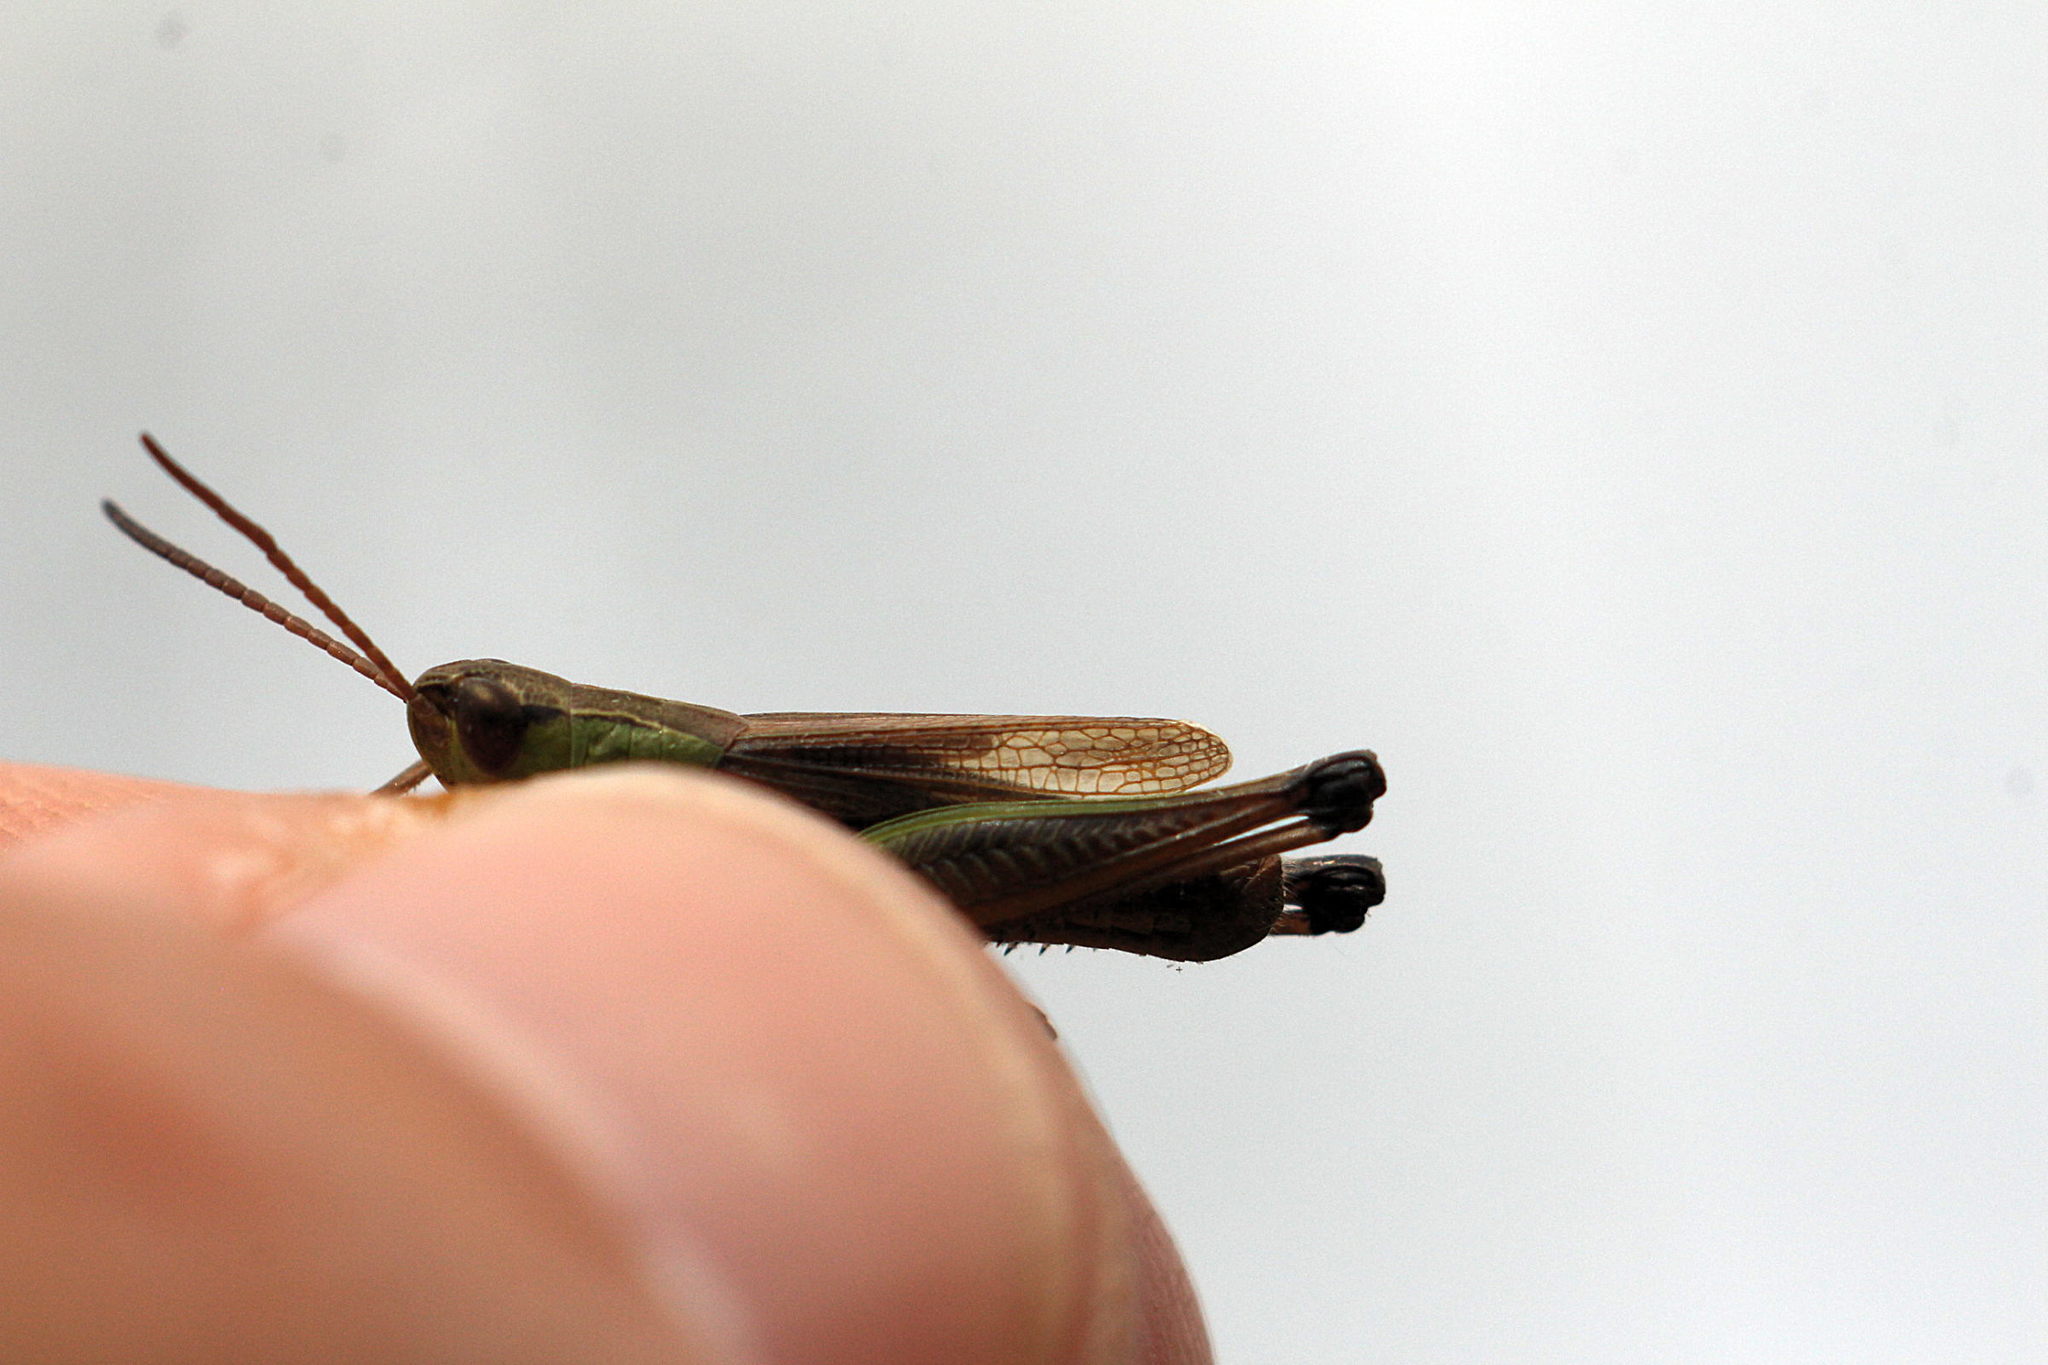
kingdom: Animalia
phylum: Arthropoda
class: Insecta
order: Orthoptera
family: Acrididae
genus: Pseudochorthippus
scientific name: Pseudochorthippus parallelus
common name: Meadow grasshopper
